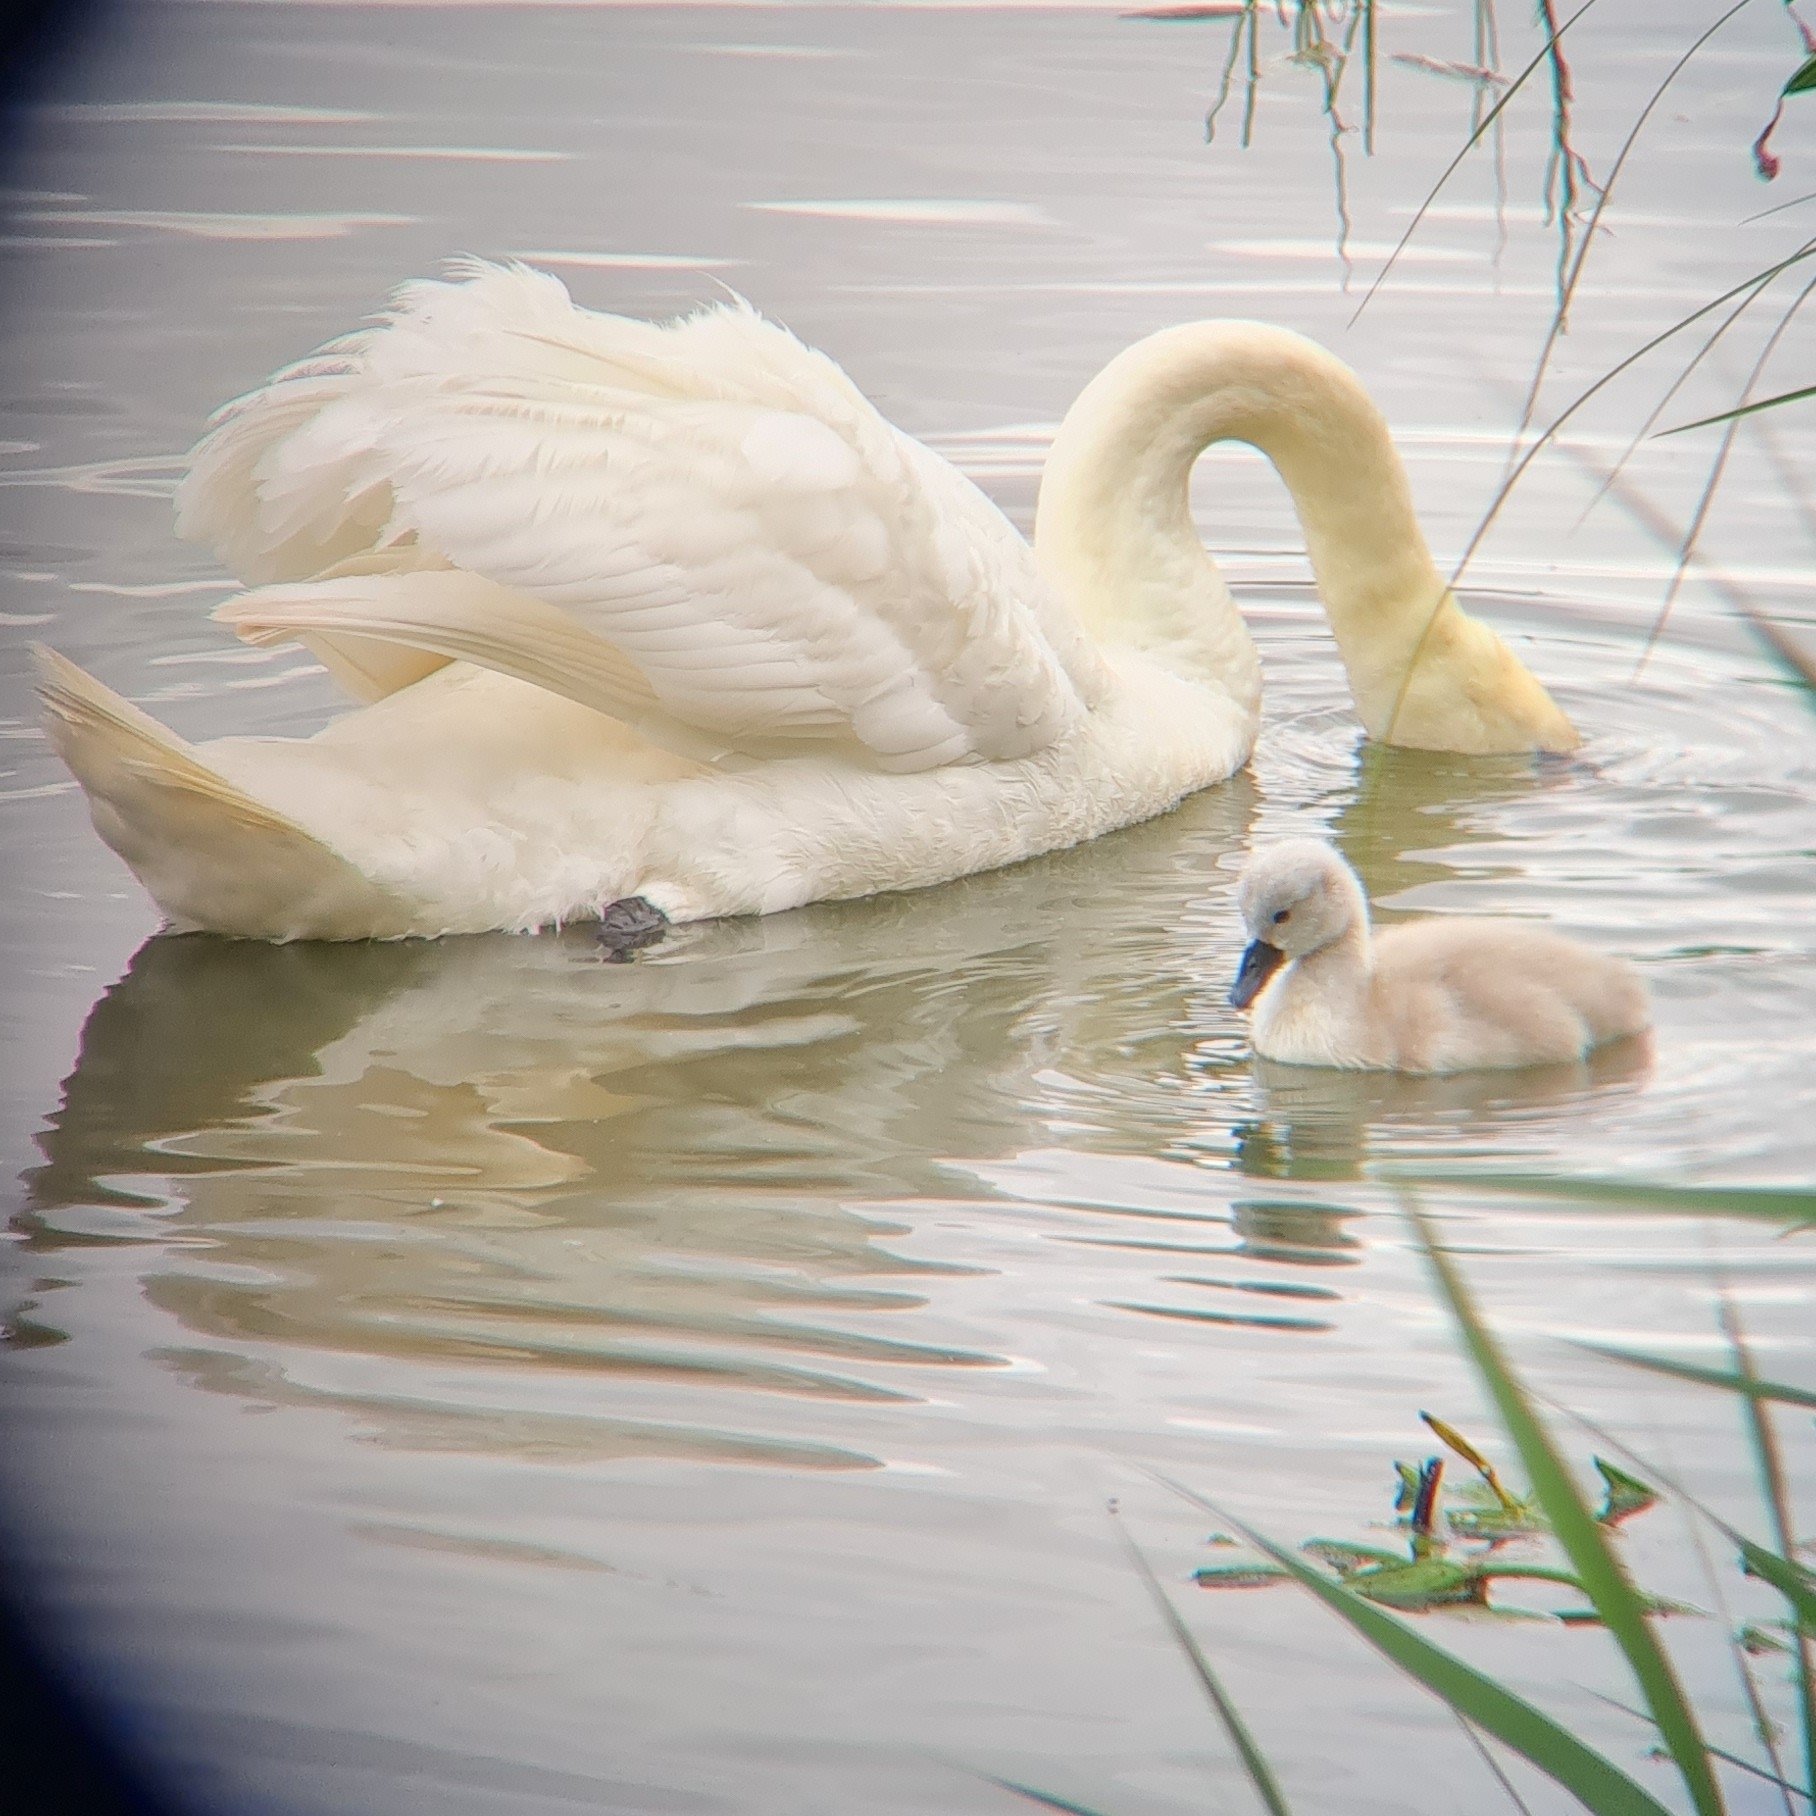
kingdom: Animalia
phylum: Chordata
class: Aves
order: Anseriformes
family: Anatidae
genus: Cygnus
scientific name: Cygnus olor
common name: Mute swan
